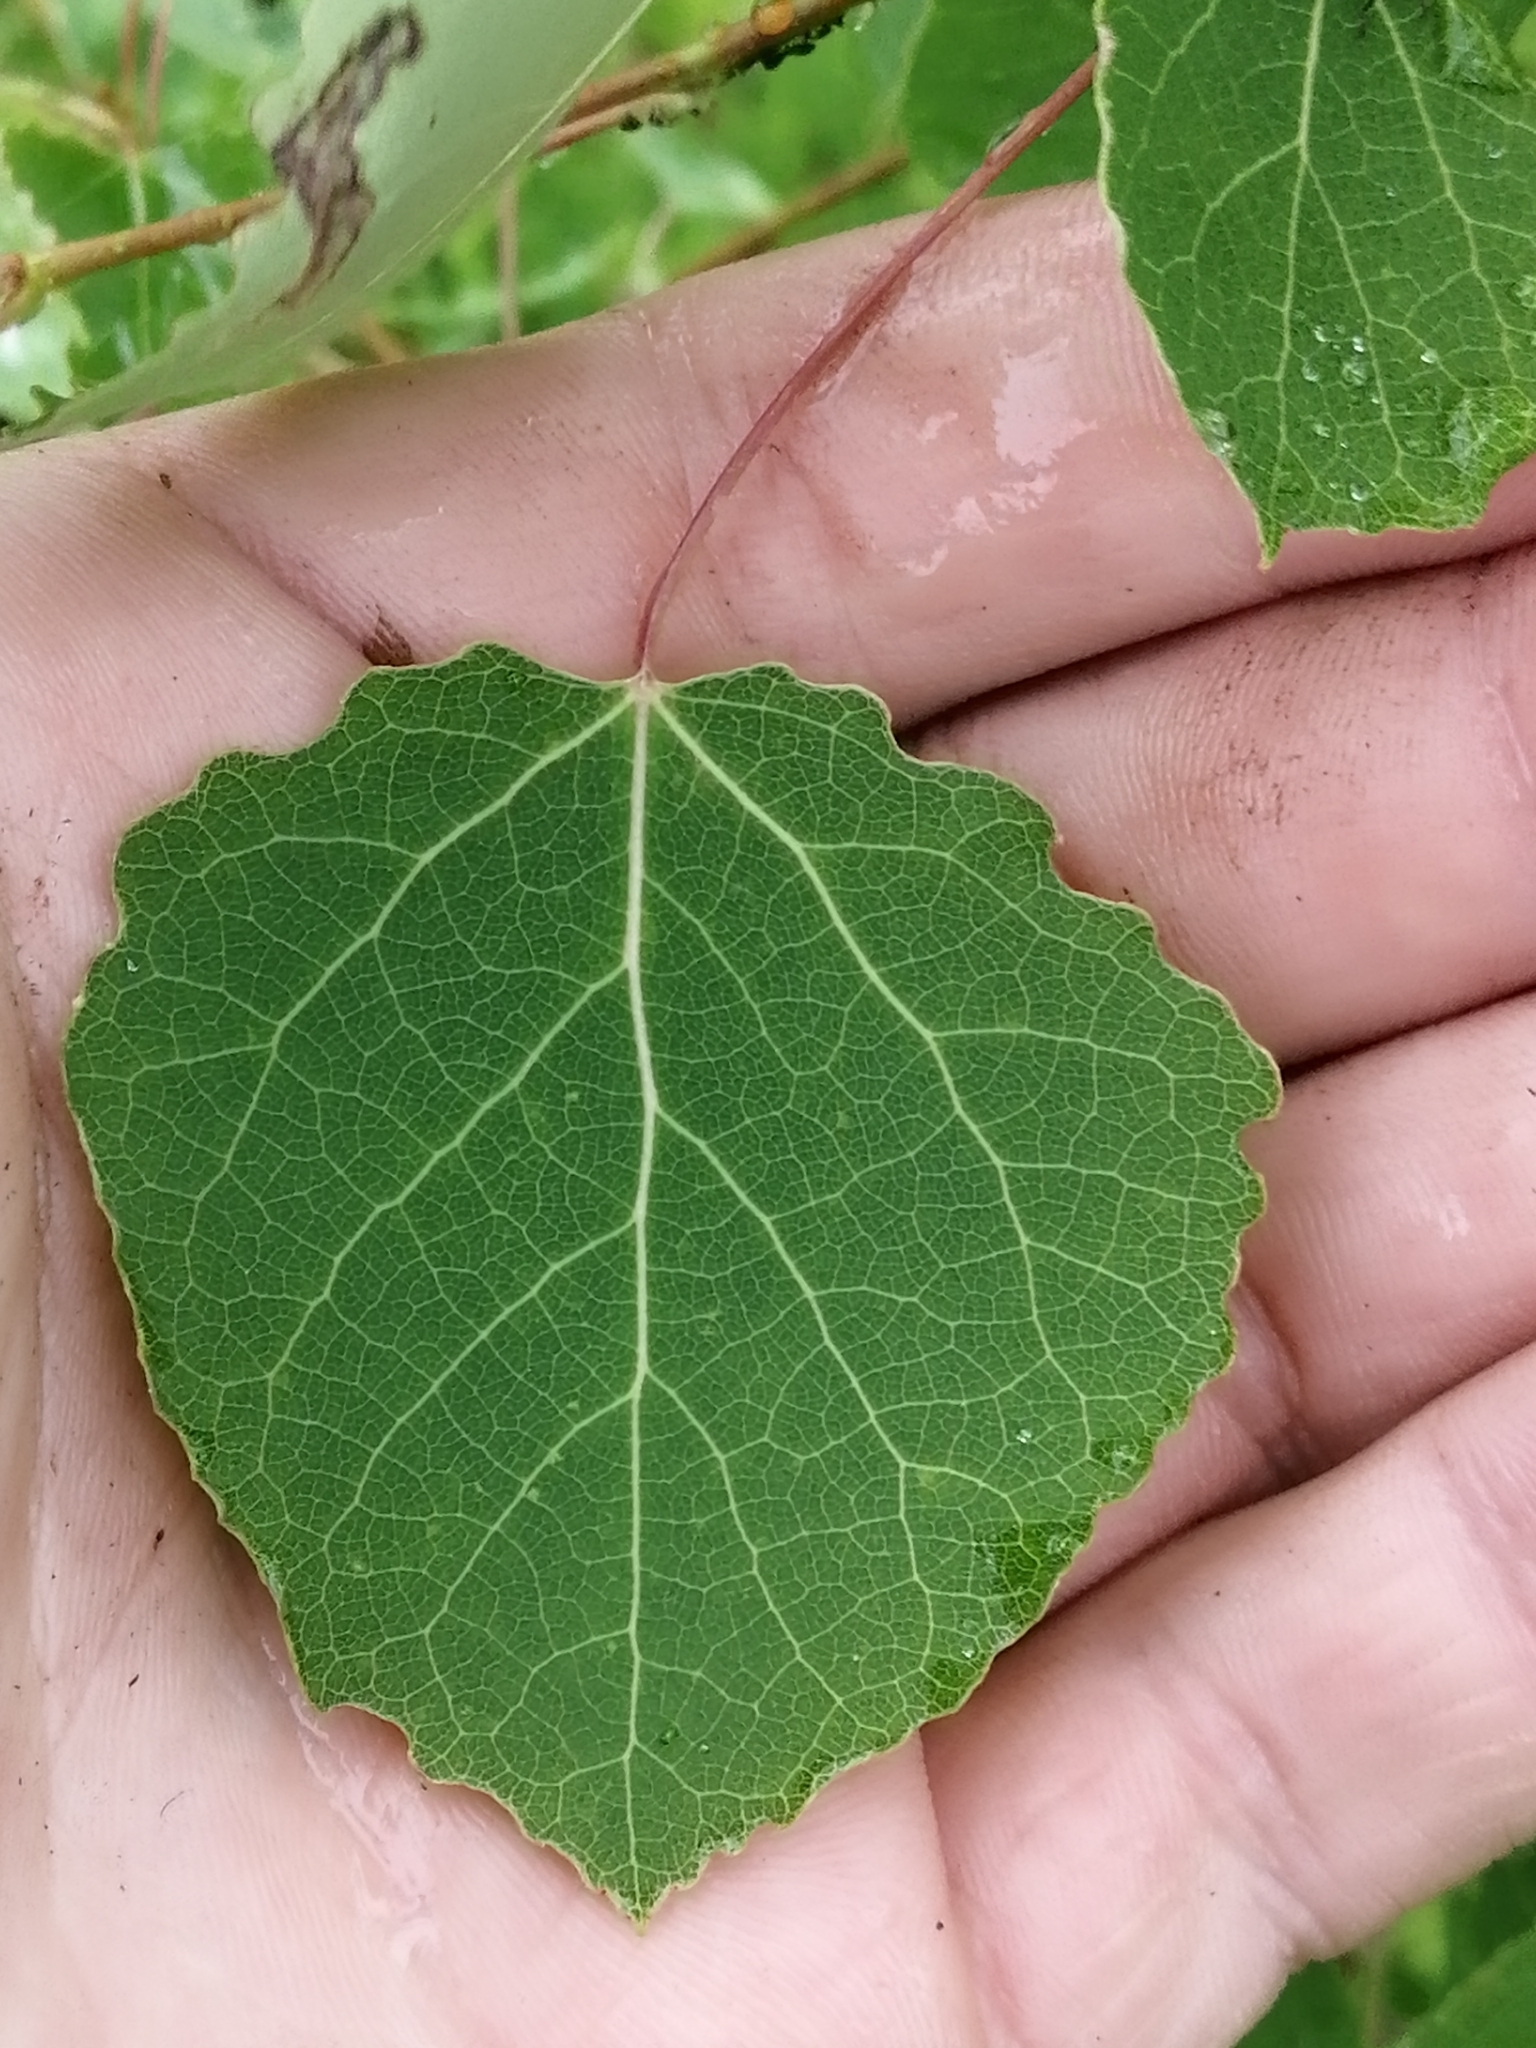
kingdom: Plantae
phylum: Tracheophyta
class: Magnoliopsida
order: Malpighiales
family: Salicaceae
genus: Populus
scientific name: Populus tremula
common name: European aspen
